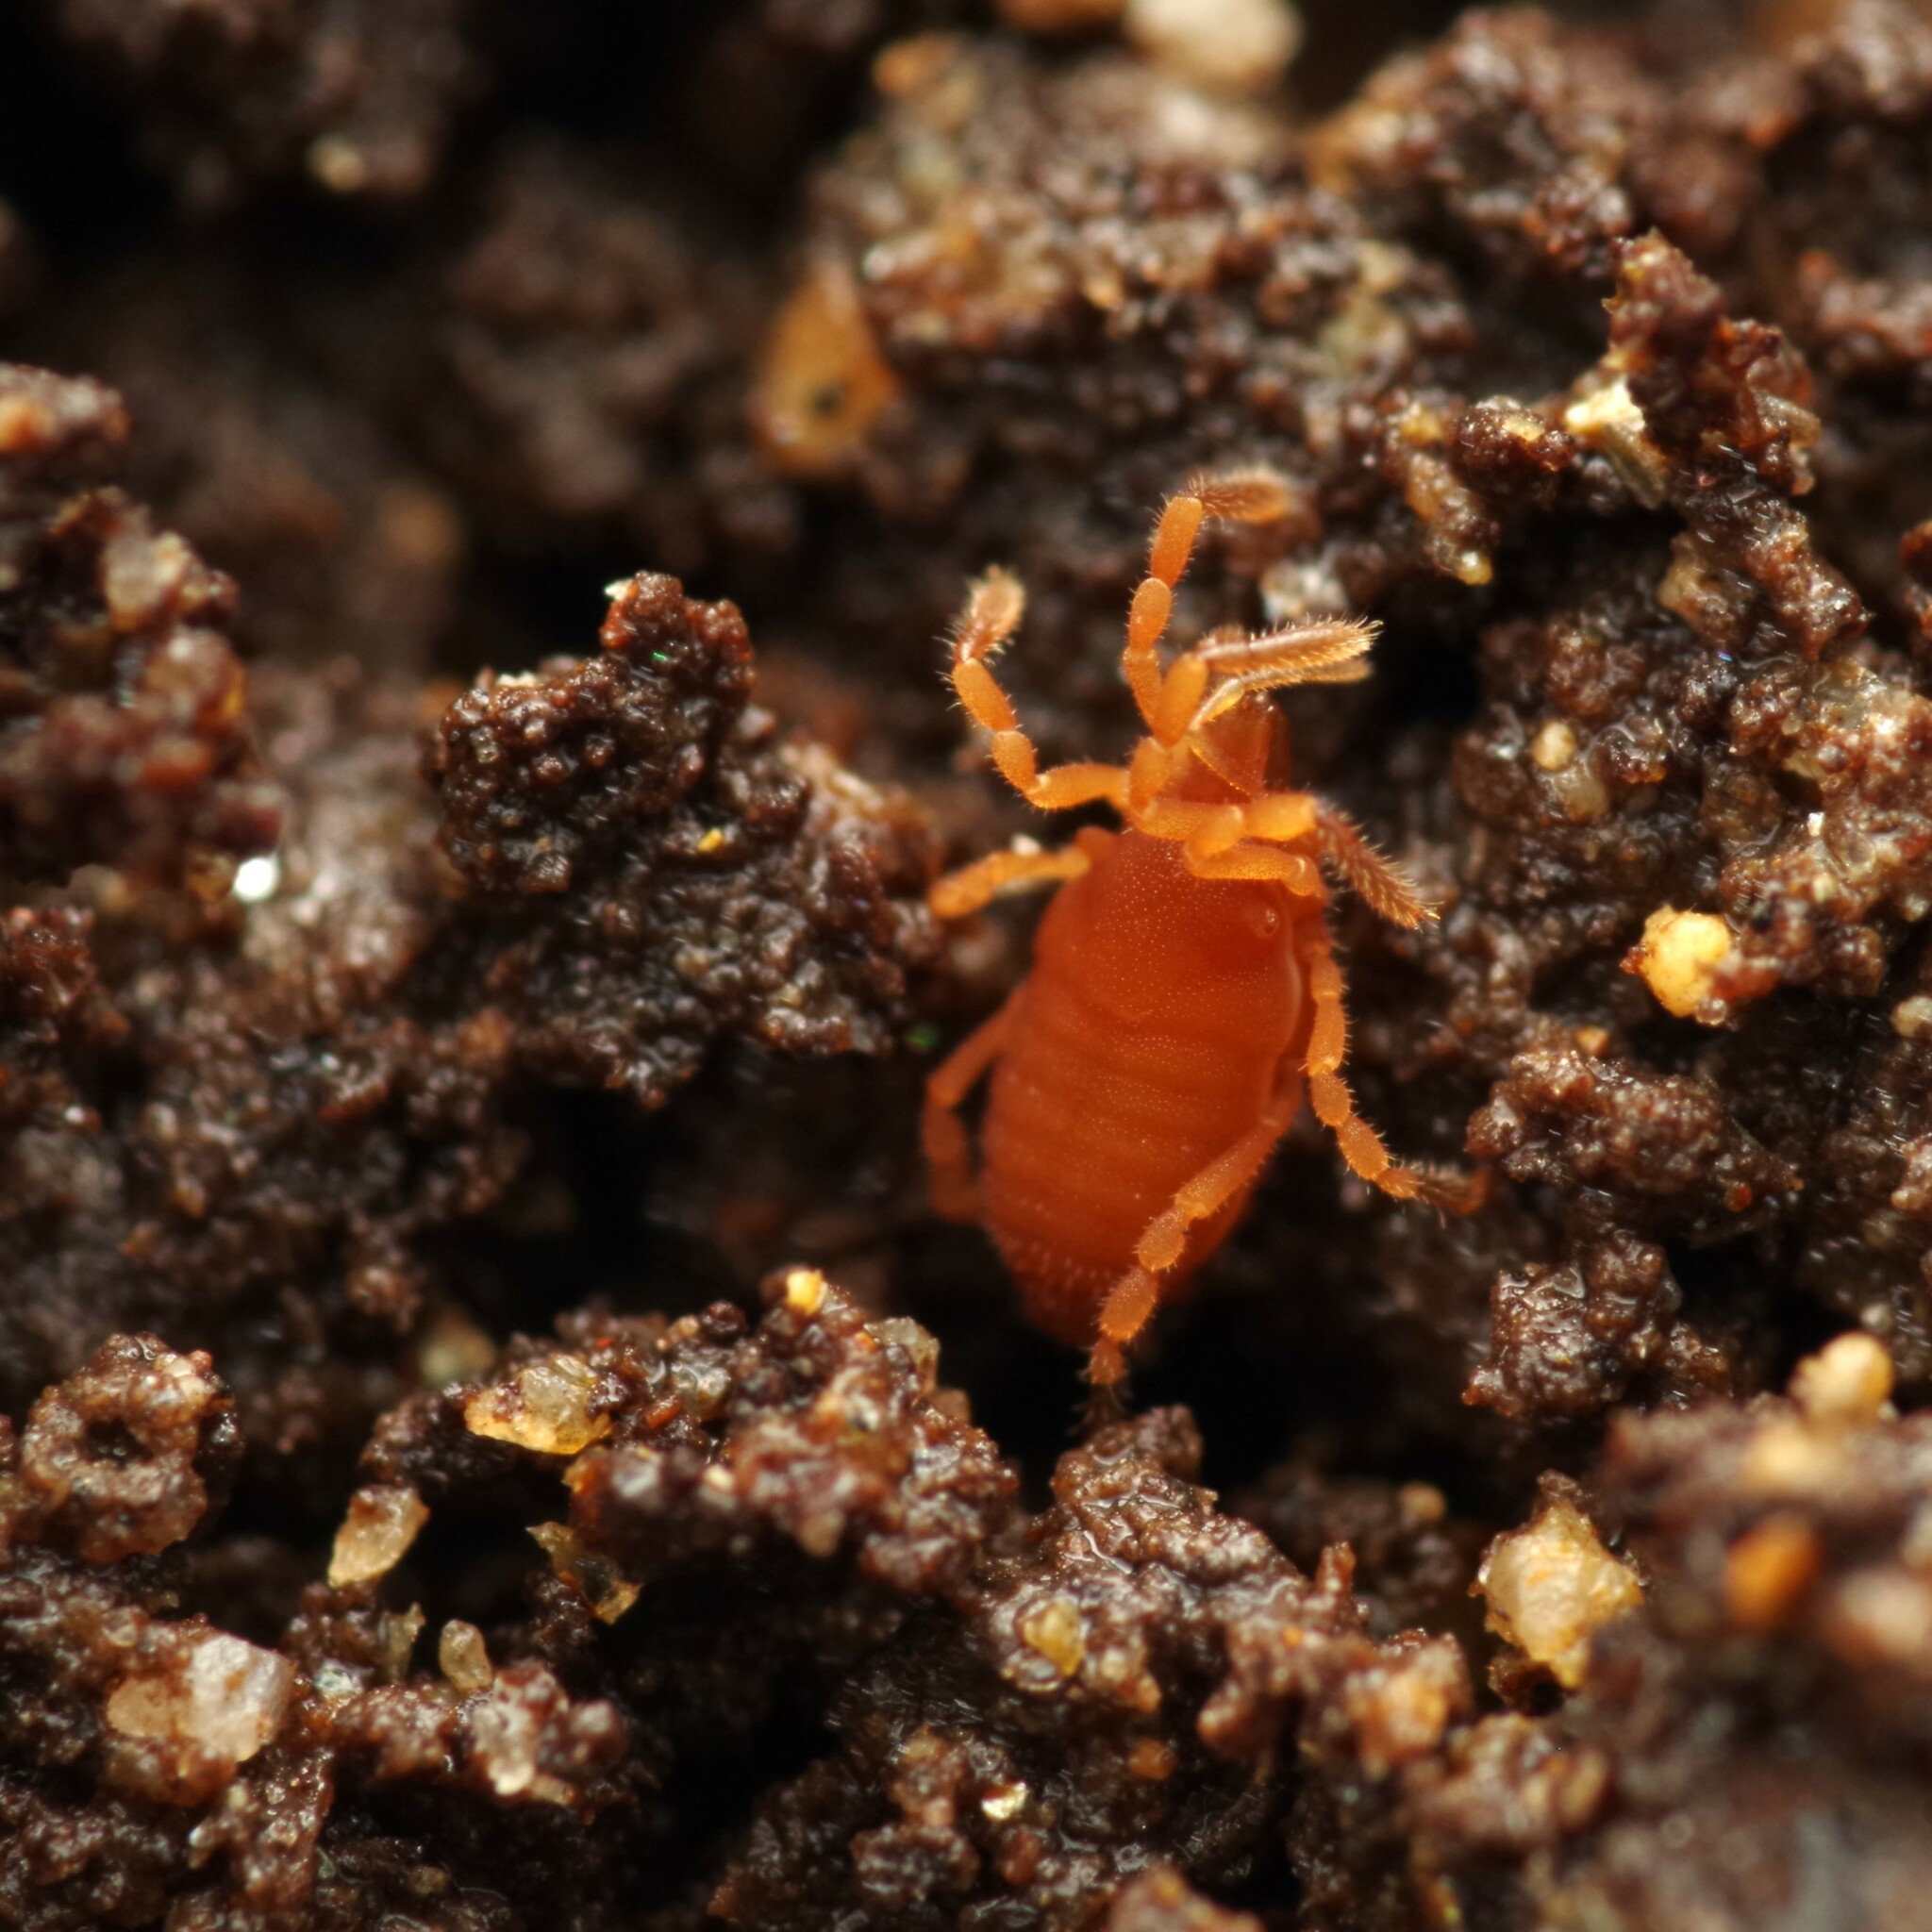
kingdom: Animalia
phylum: Arthropoda
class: Arachnida
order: Opiliones
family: Sironidae
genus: Siro
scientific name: Siro rubens
